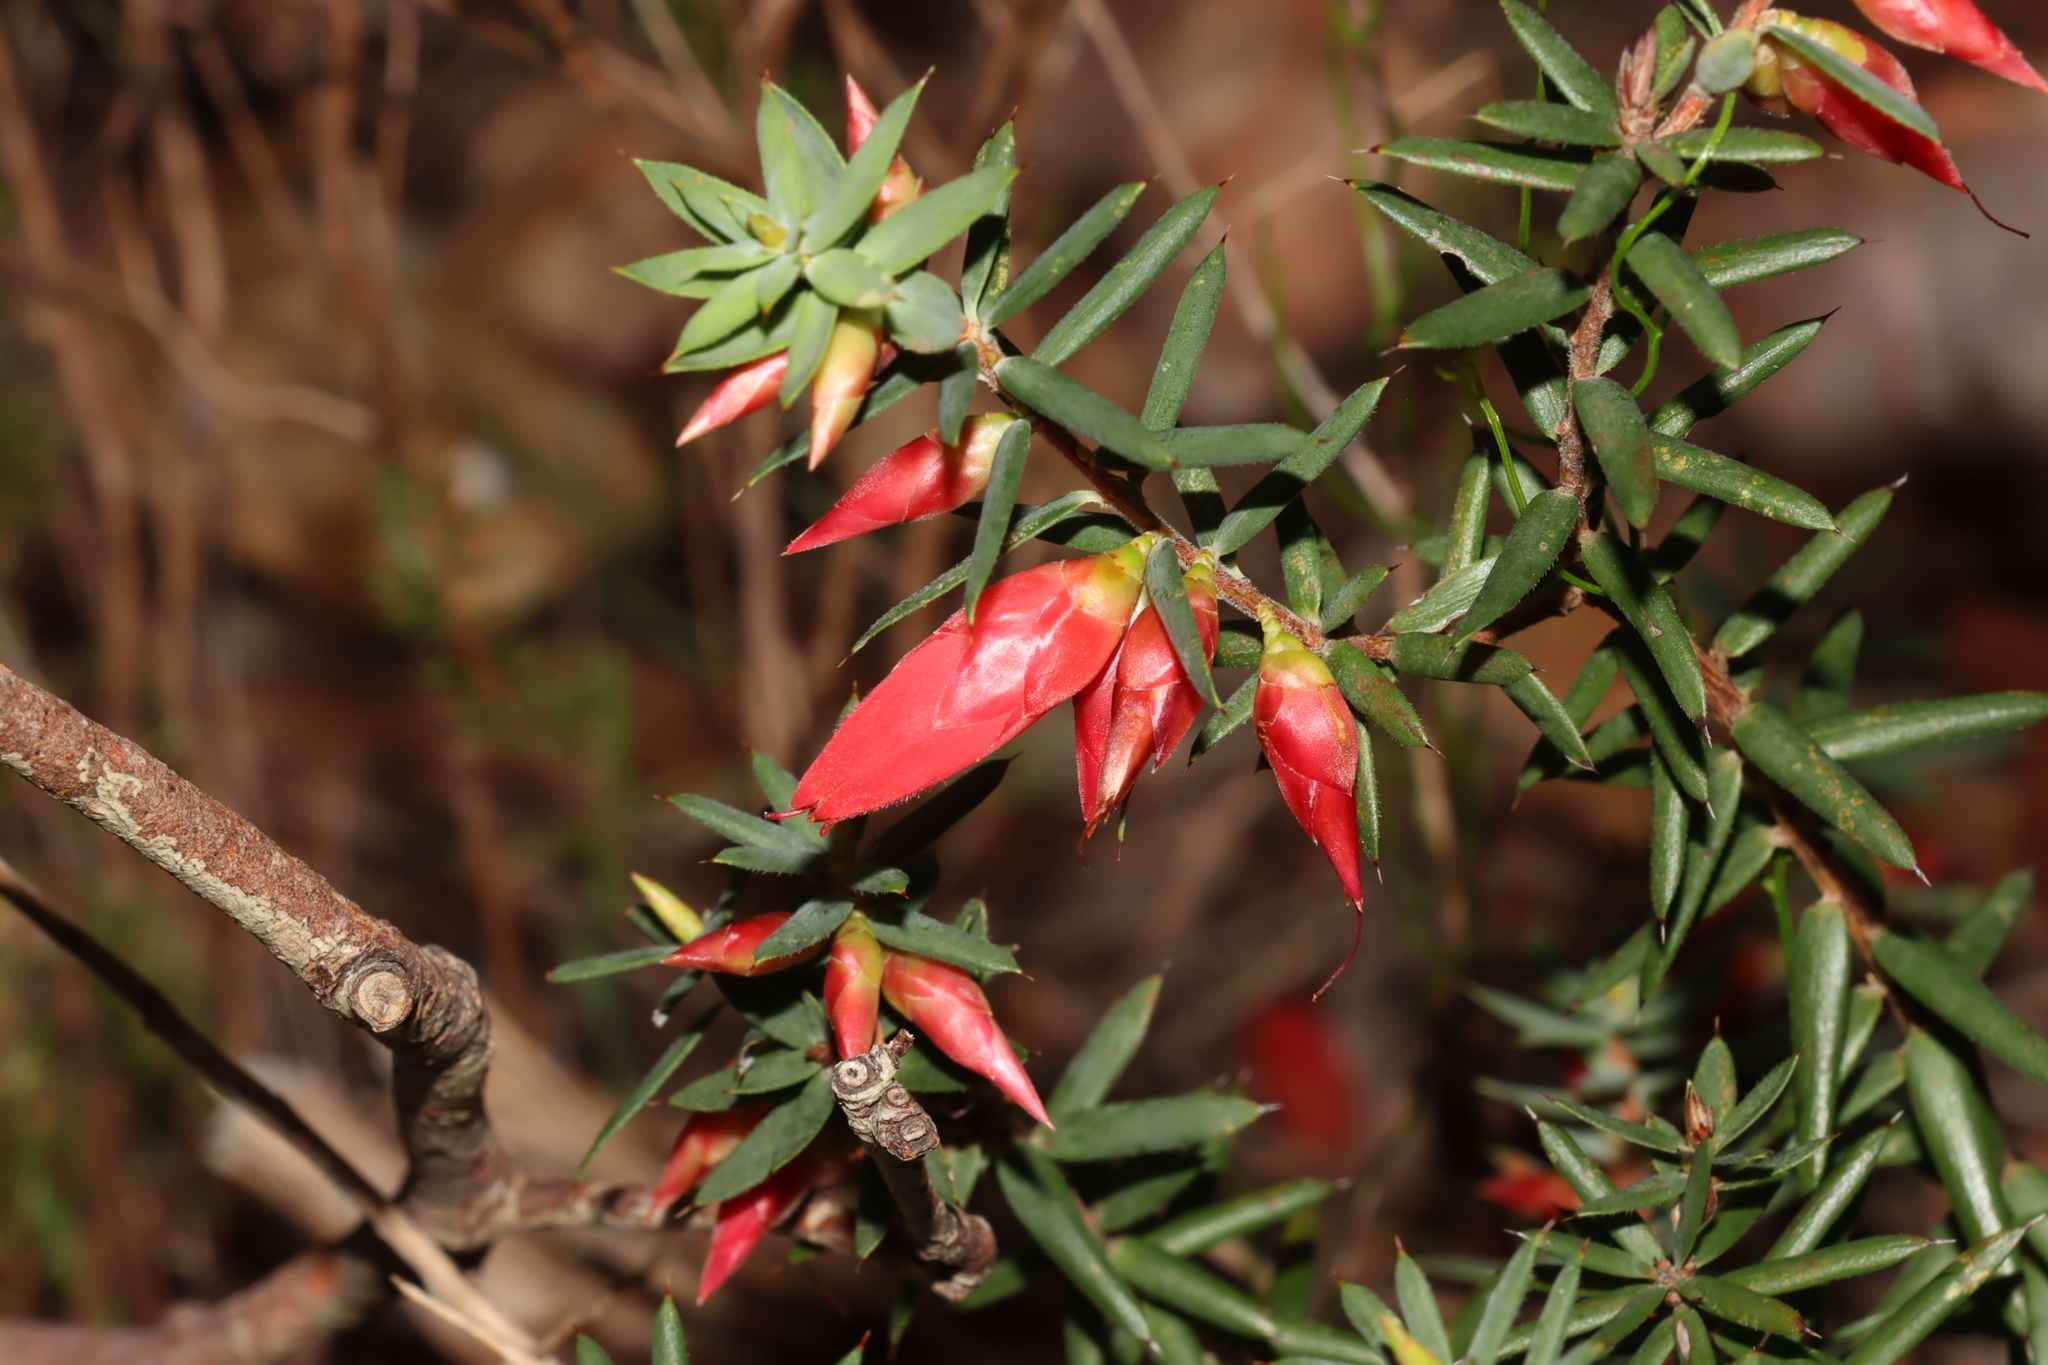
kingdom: Plantae
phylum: Tracheophyta
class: Magnoliopsida
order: Ericales
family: Ericaceae
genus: Stenanthera
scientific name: Stenanthera conostephioides
